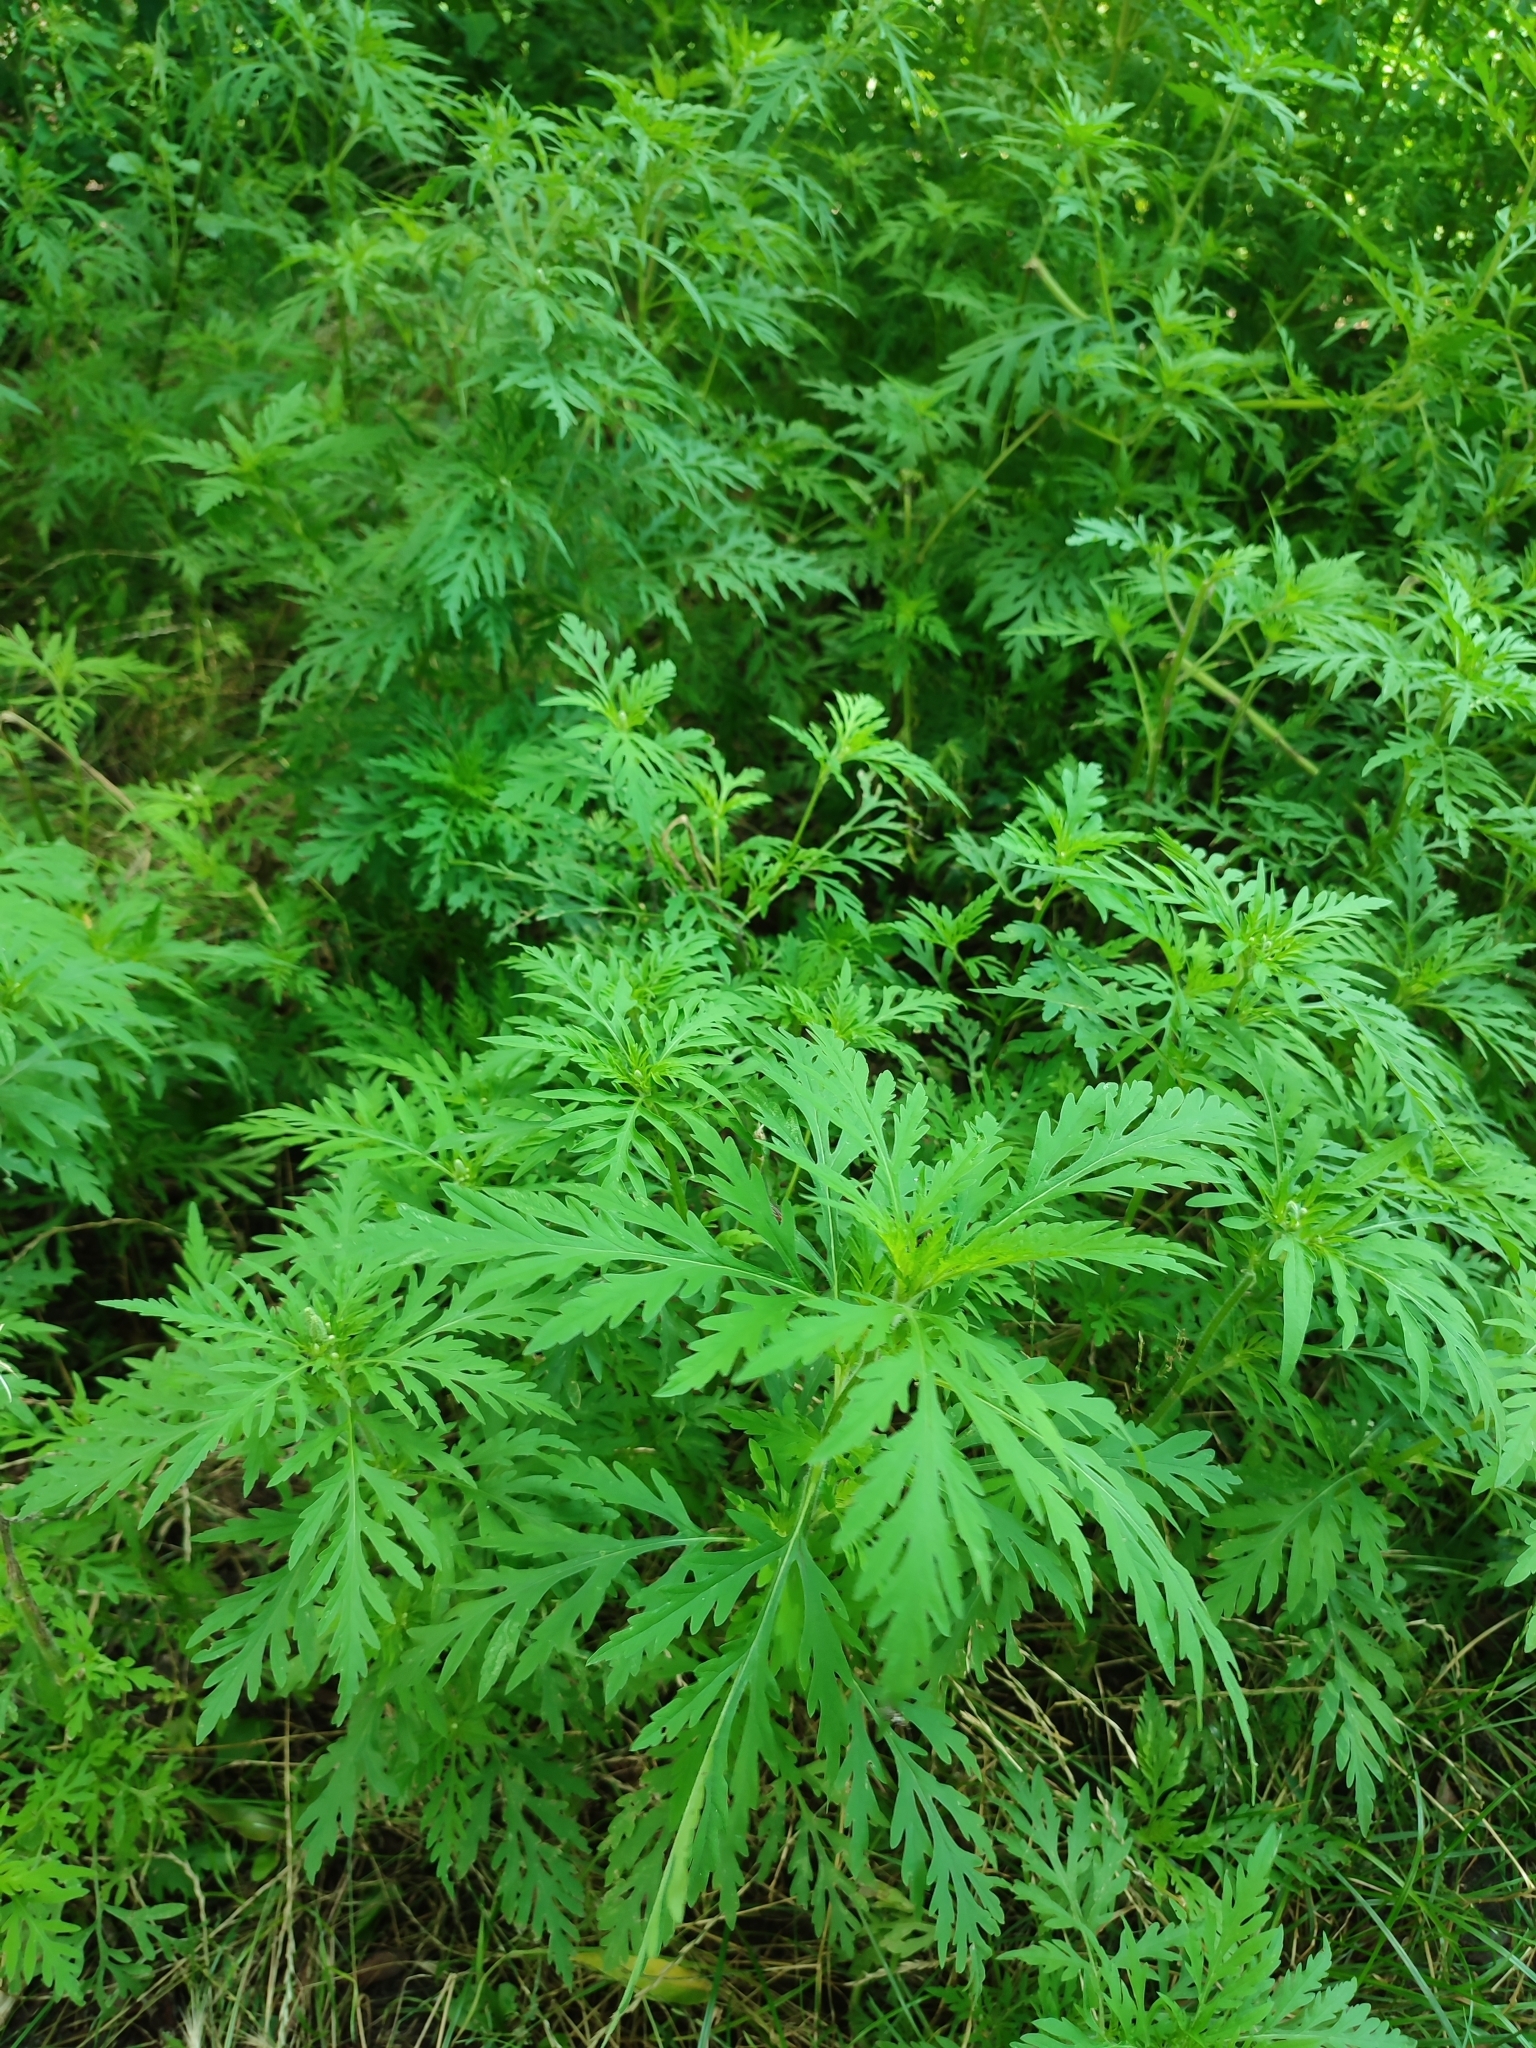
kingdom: Plantae
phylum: Tracheophyta
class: Magnoliopsida
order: Asterales
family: Asteraceae
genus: Ambrosia
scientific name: Ambrosia artemisiifolia
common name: Annual ragweed
